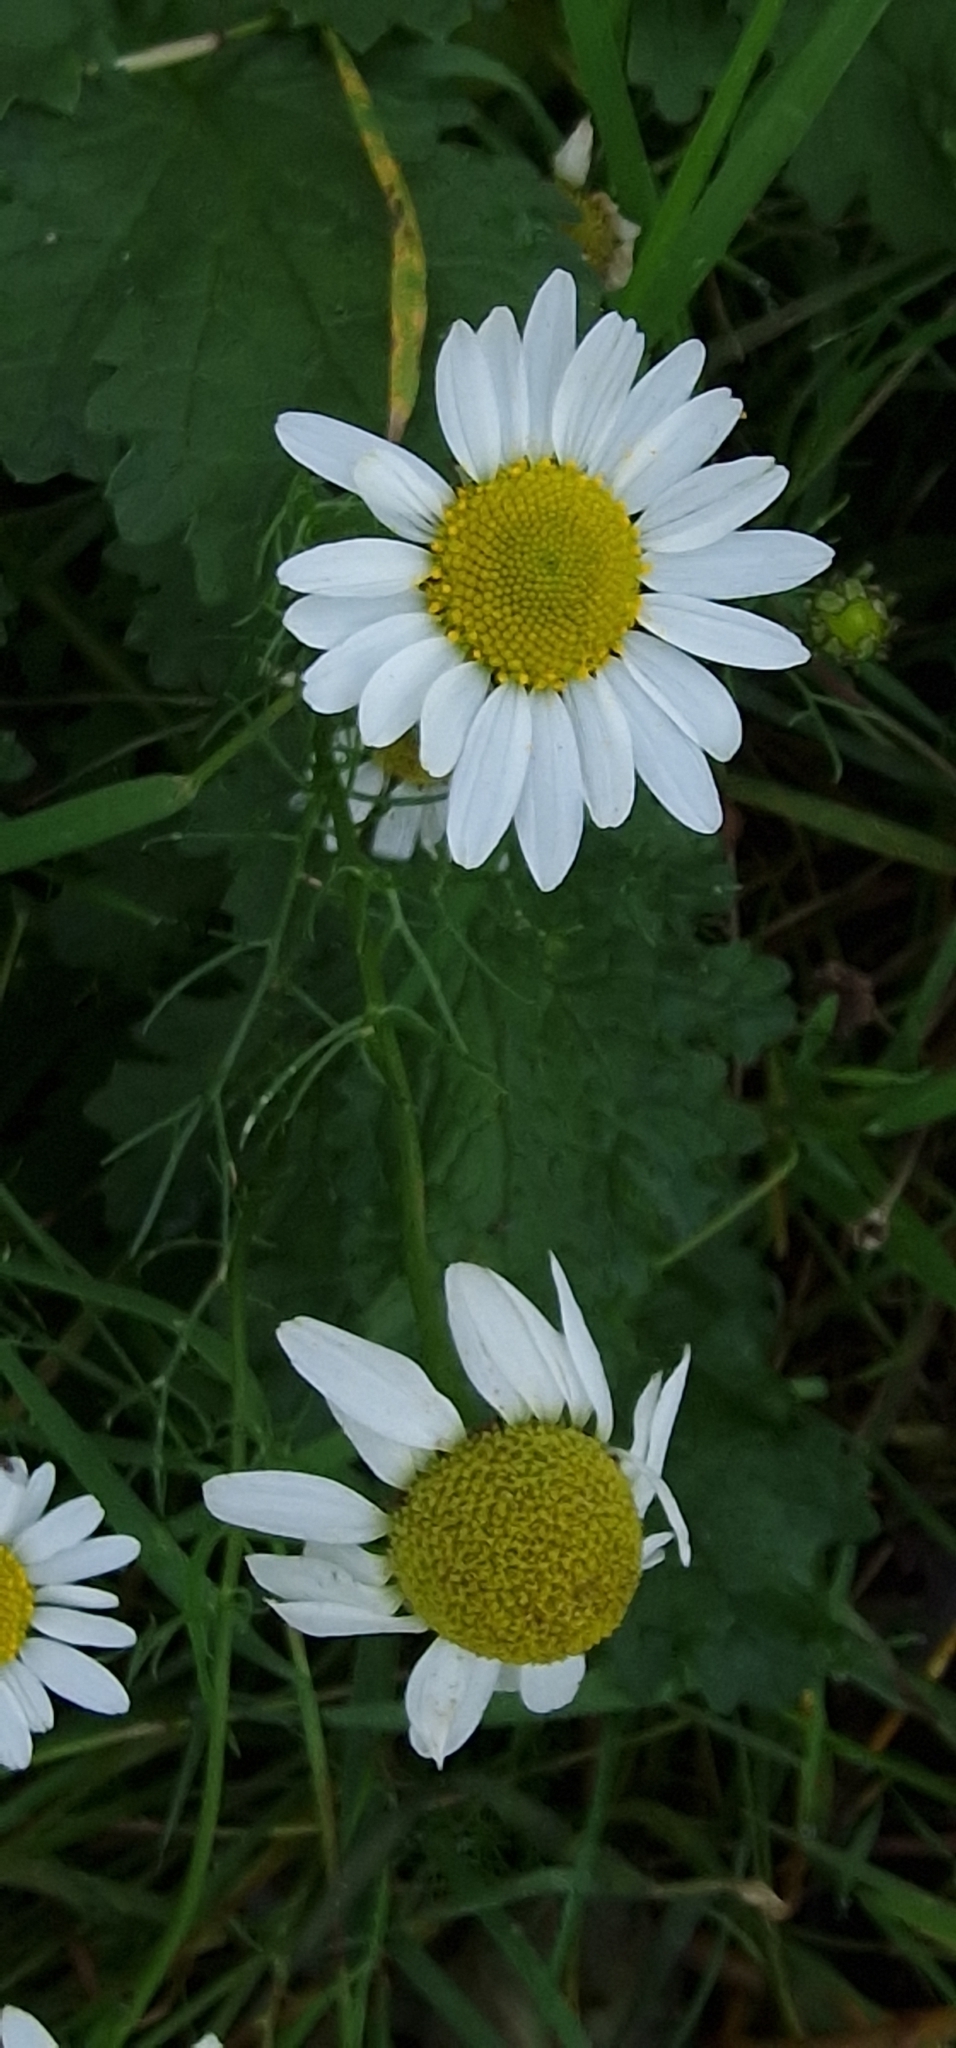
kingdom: Plantae
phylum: Tracheophyta
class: Magnoliopsida
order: Asterales
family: Asteraceae
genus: Tripleurospermum
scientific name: Tripleurospermum inodorum
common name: Scentless mayweed
